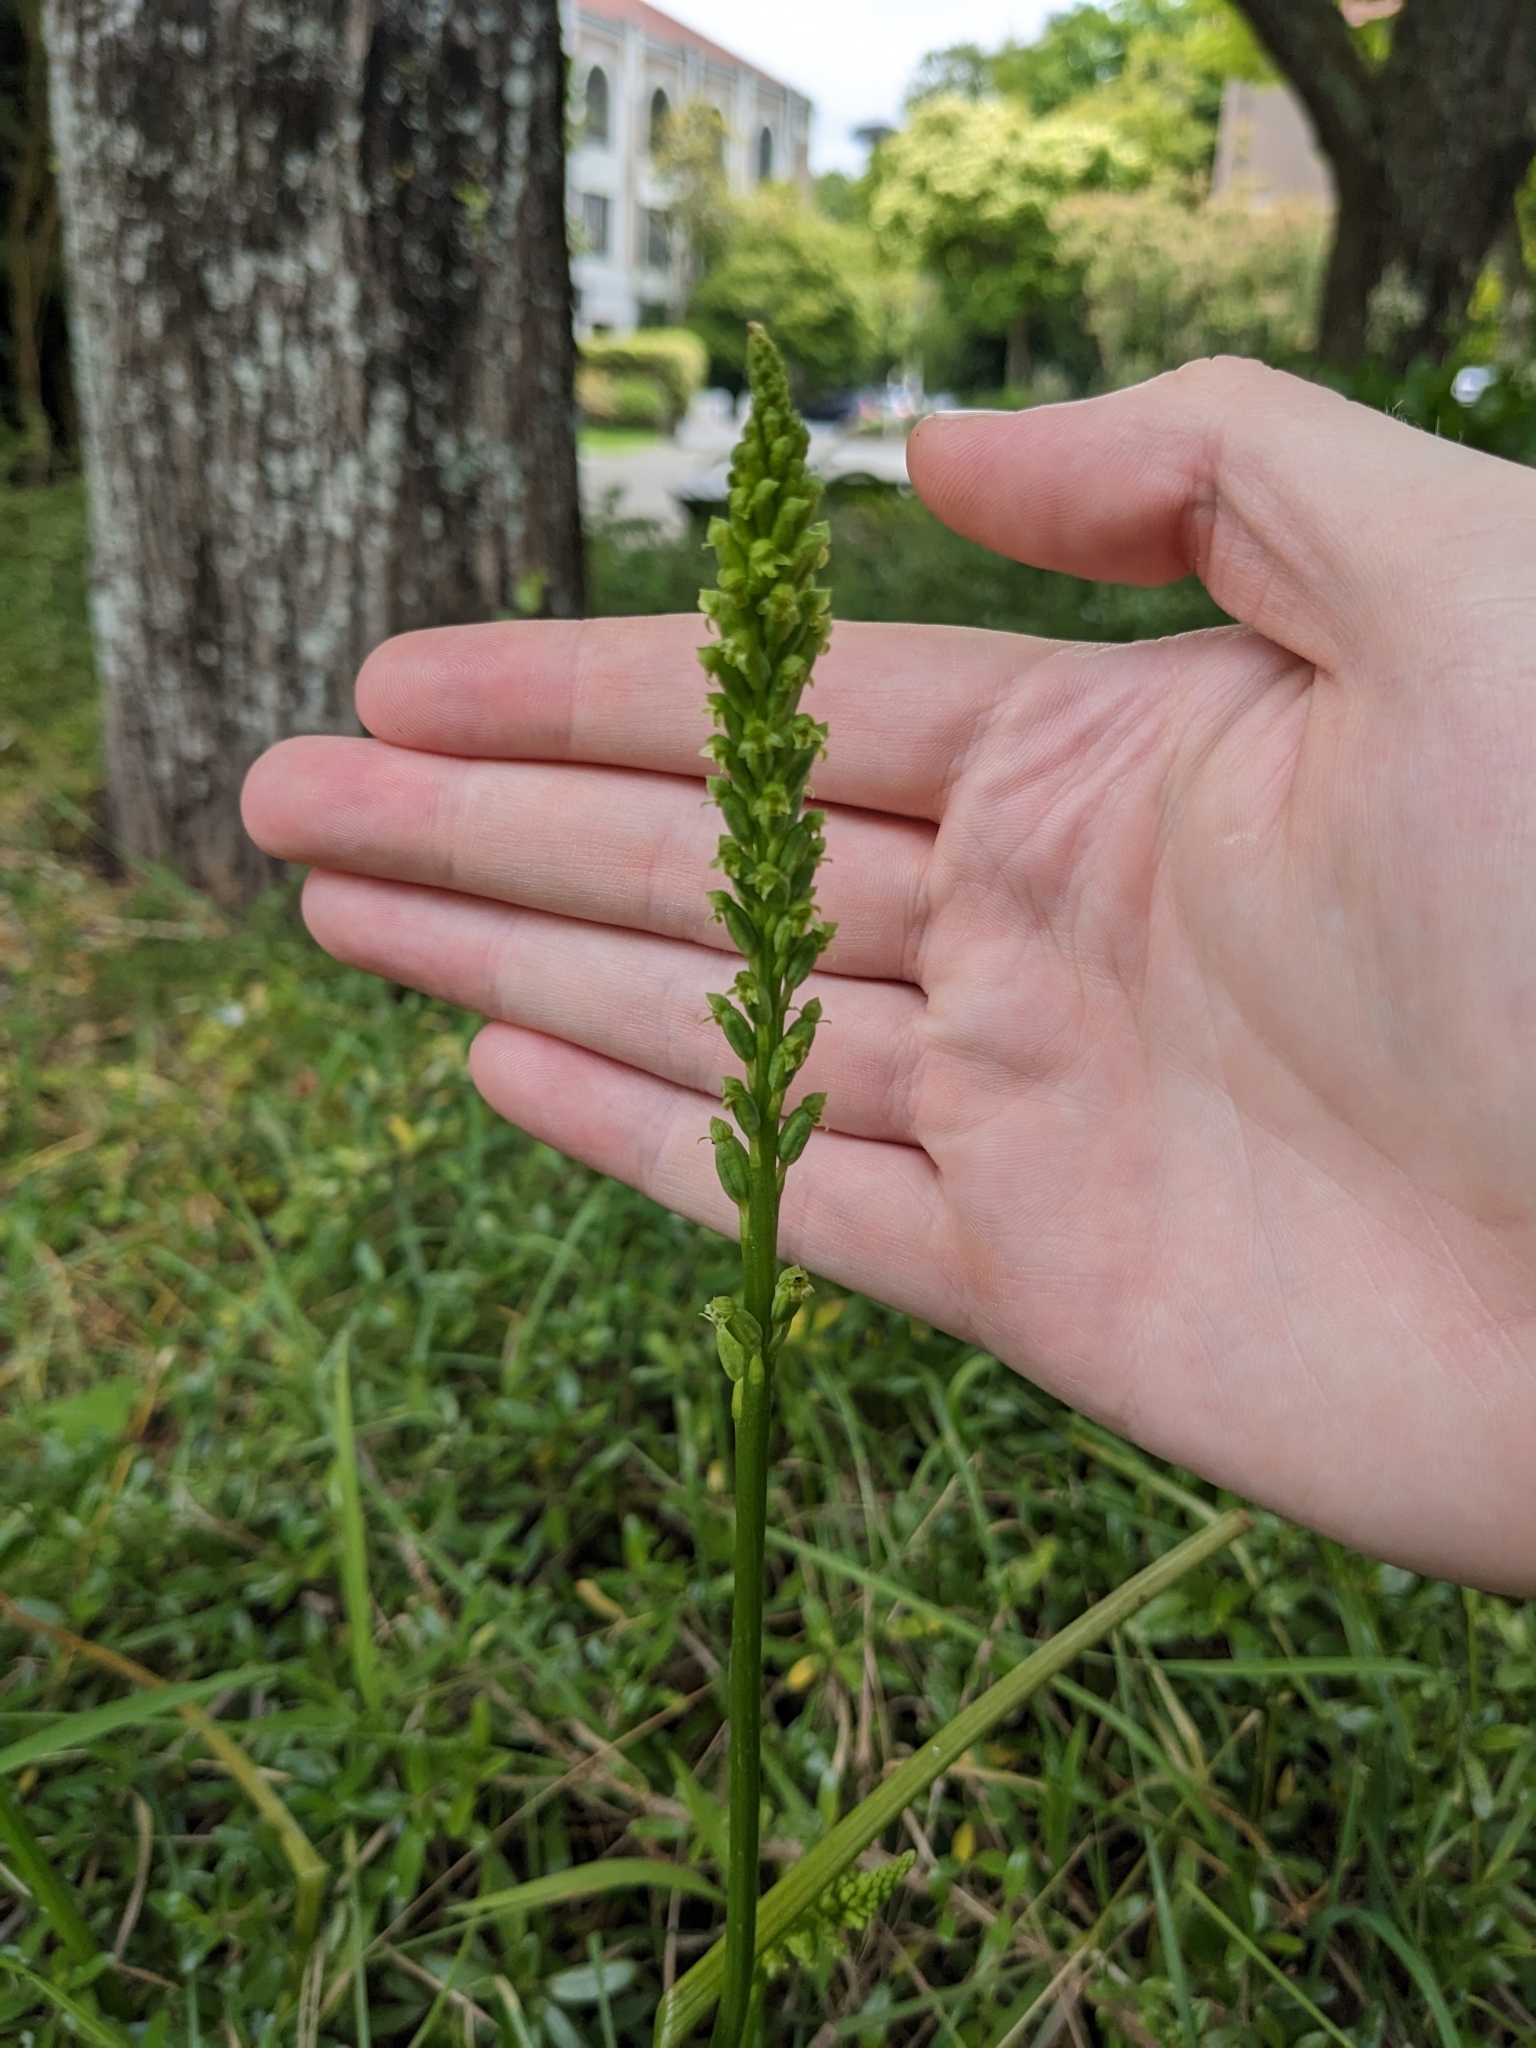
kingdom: Plantae
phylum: Tracheophyta
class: Liliopsida
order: Asparagales
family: Orchidaceae
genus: Microtis
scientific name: Microtis unifolia
